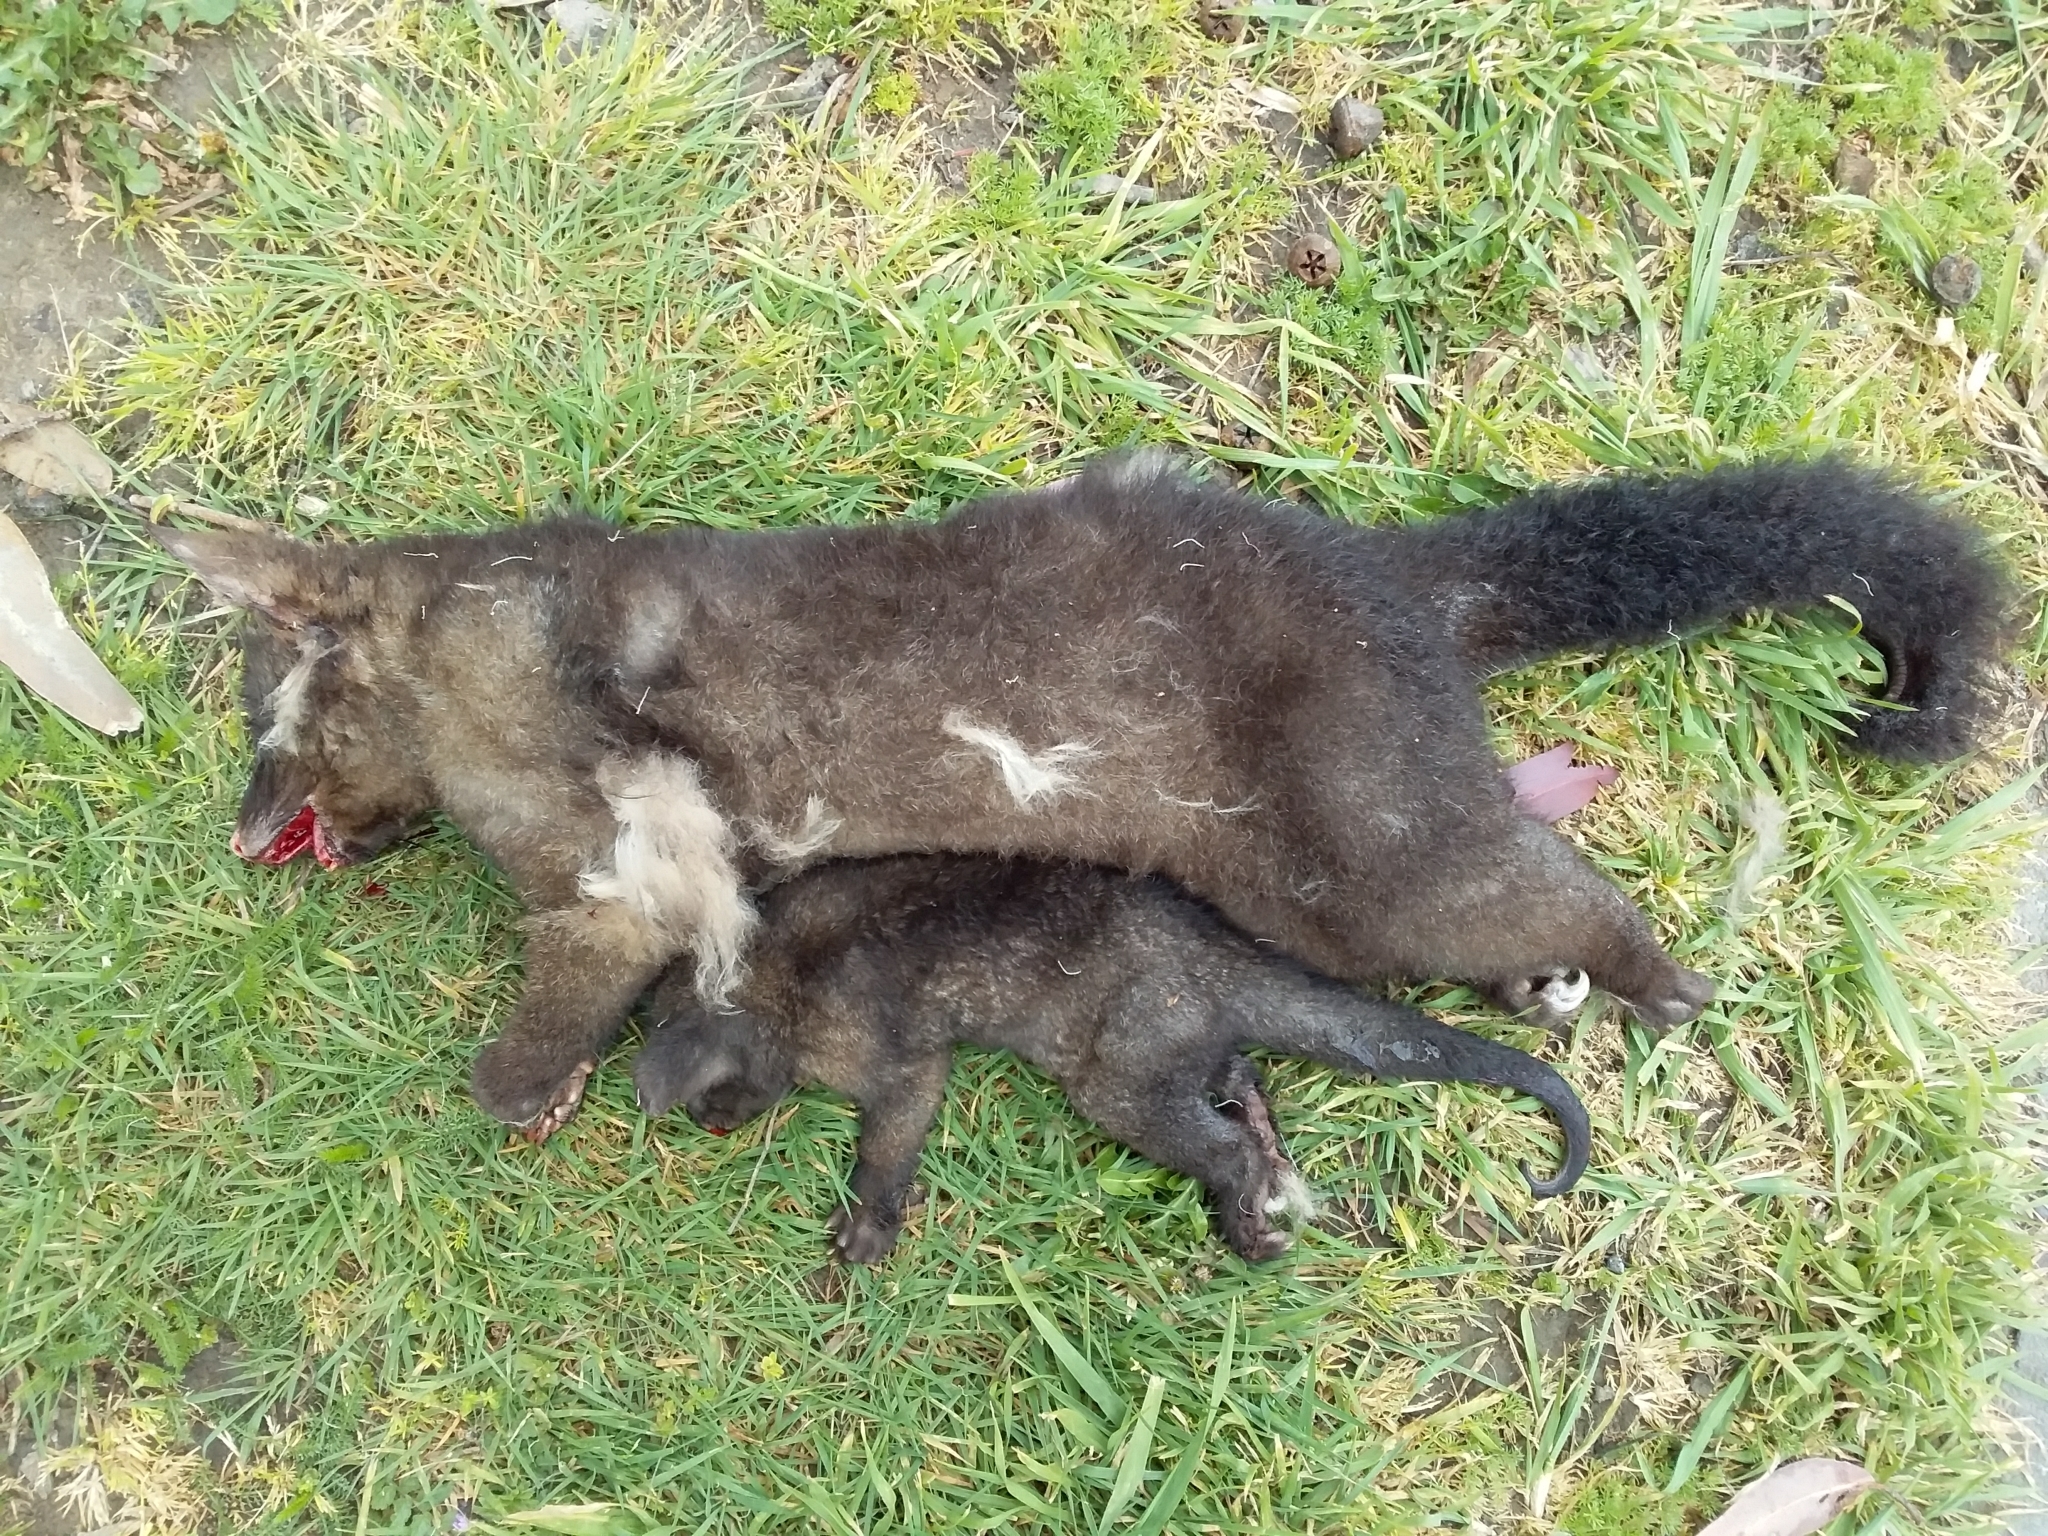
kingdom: Animalia
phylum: Chordata
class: Mammalia
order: Diprotodontia
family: Phalangeridae
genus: Trichosurus
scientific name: Trichosurus vulpecula
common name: Common brushtail
